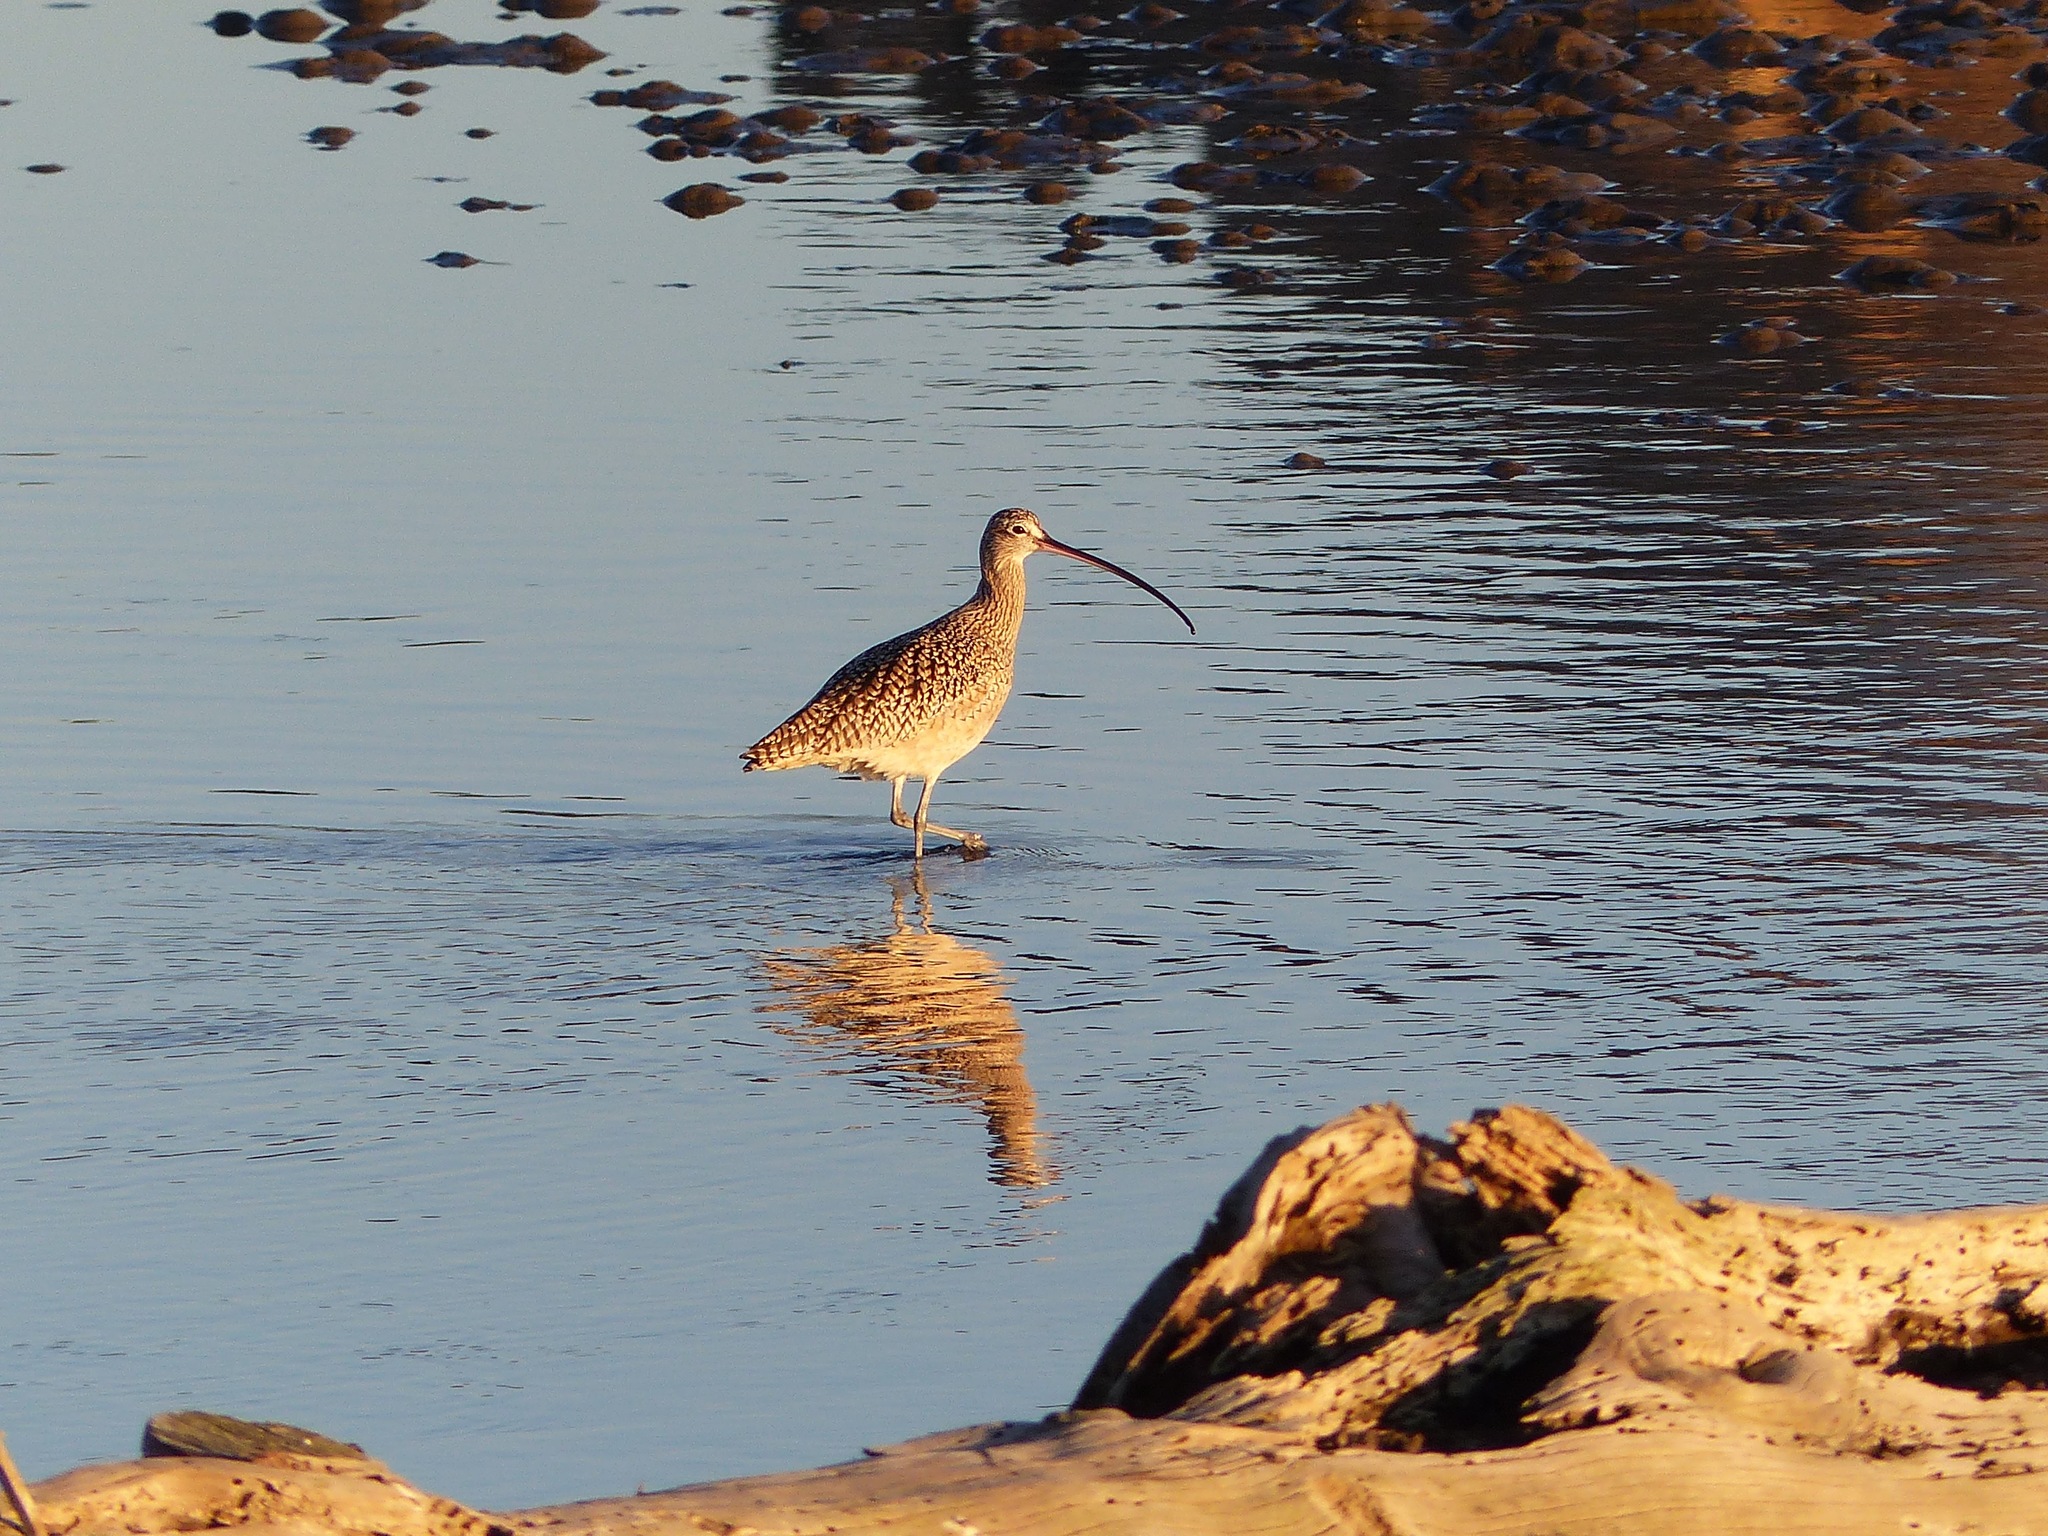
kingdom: Animalia
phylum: Chordata
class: Aves
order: Charadriiformes
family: Scolopacidae
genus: Numenius
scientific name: Numenius americanus
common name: Long-billed curlew
